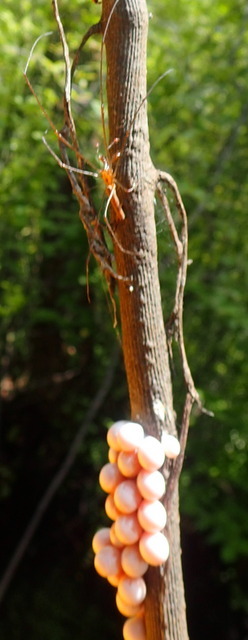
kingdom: Animalia
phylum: Mollusca
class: Gastropoda
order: Architaenioglossa
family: Ampullariidae
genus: Pomacea
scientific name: Pomacea paludosa
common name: Florida applesnail
